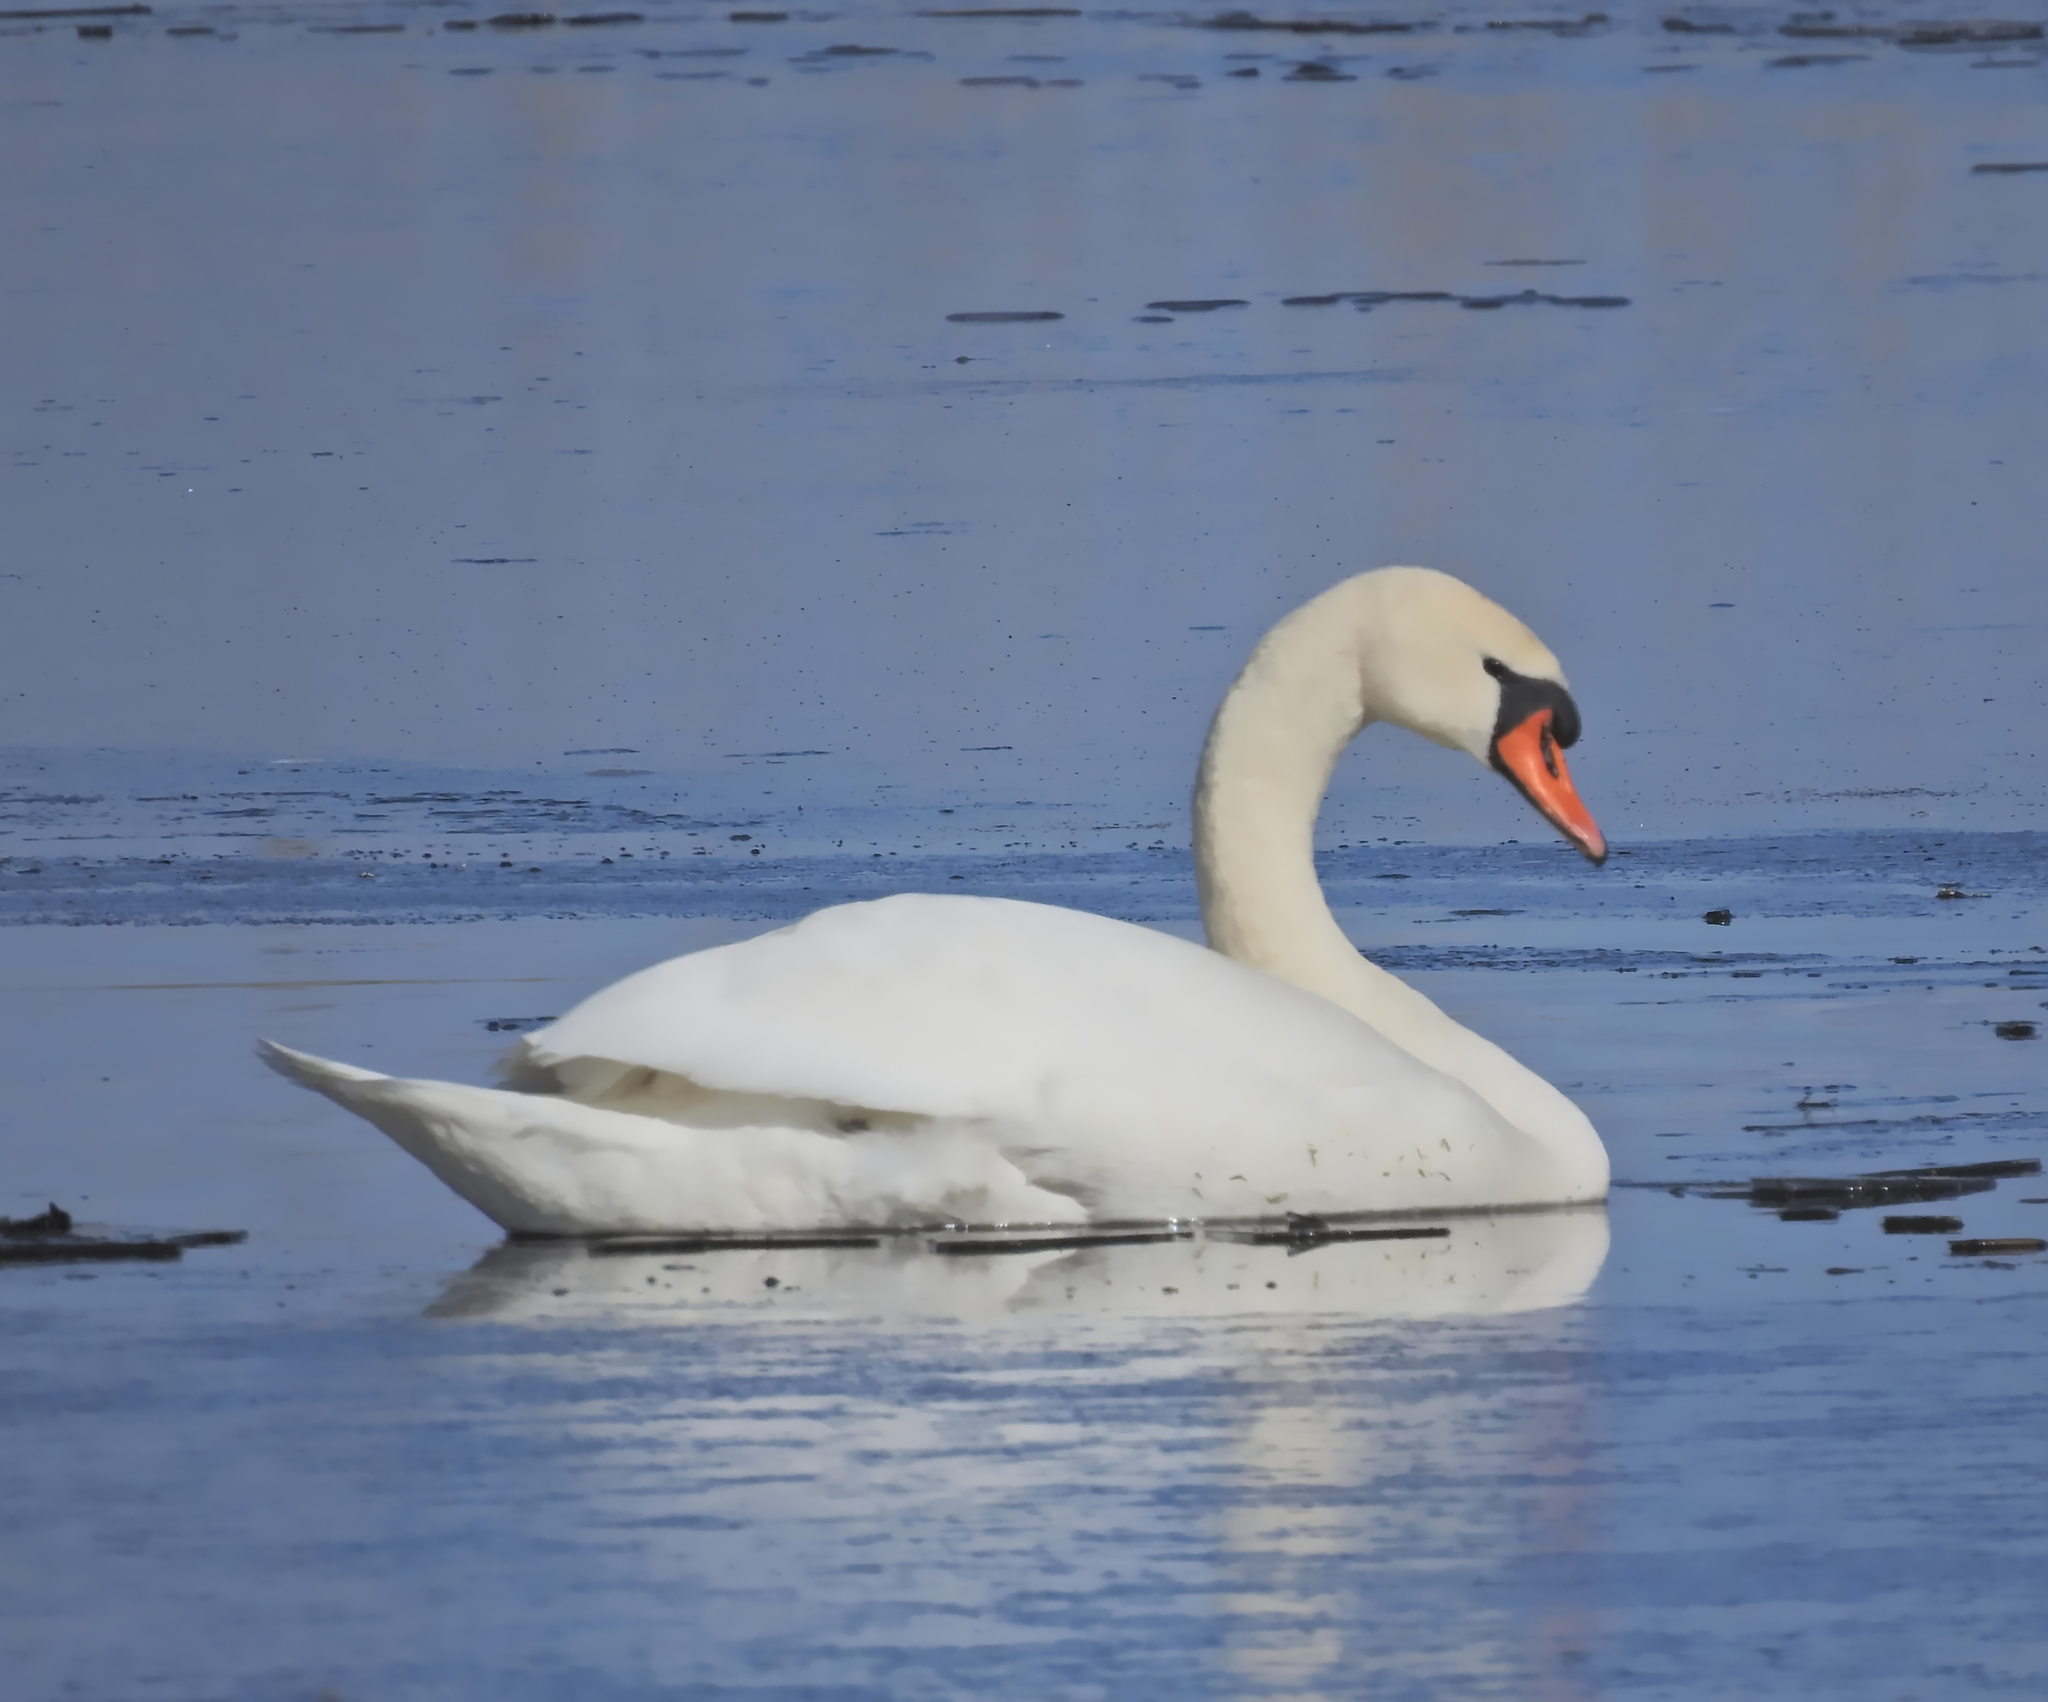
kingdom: Animalia
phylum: Chordata
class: Aves
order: Anseriformes
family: Anatidae
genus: Cygnus
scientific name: Cygnus olor
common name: Mute swan
